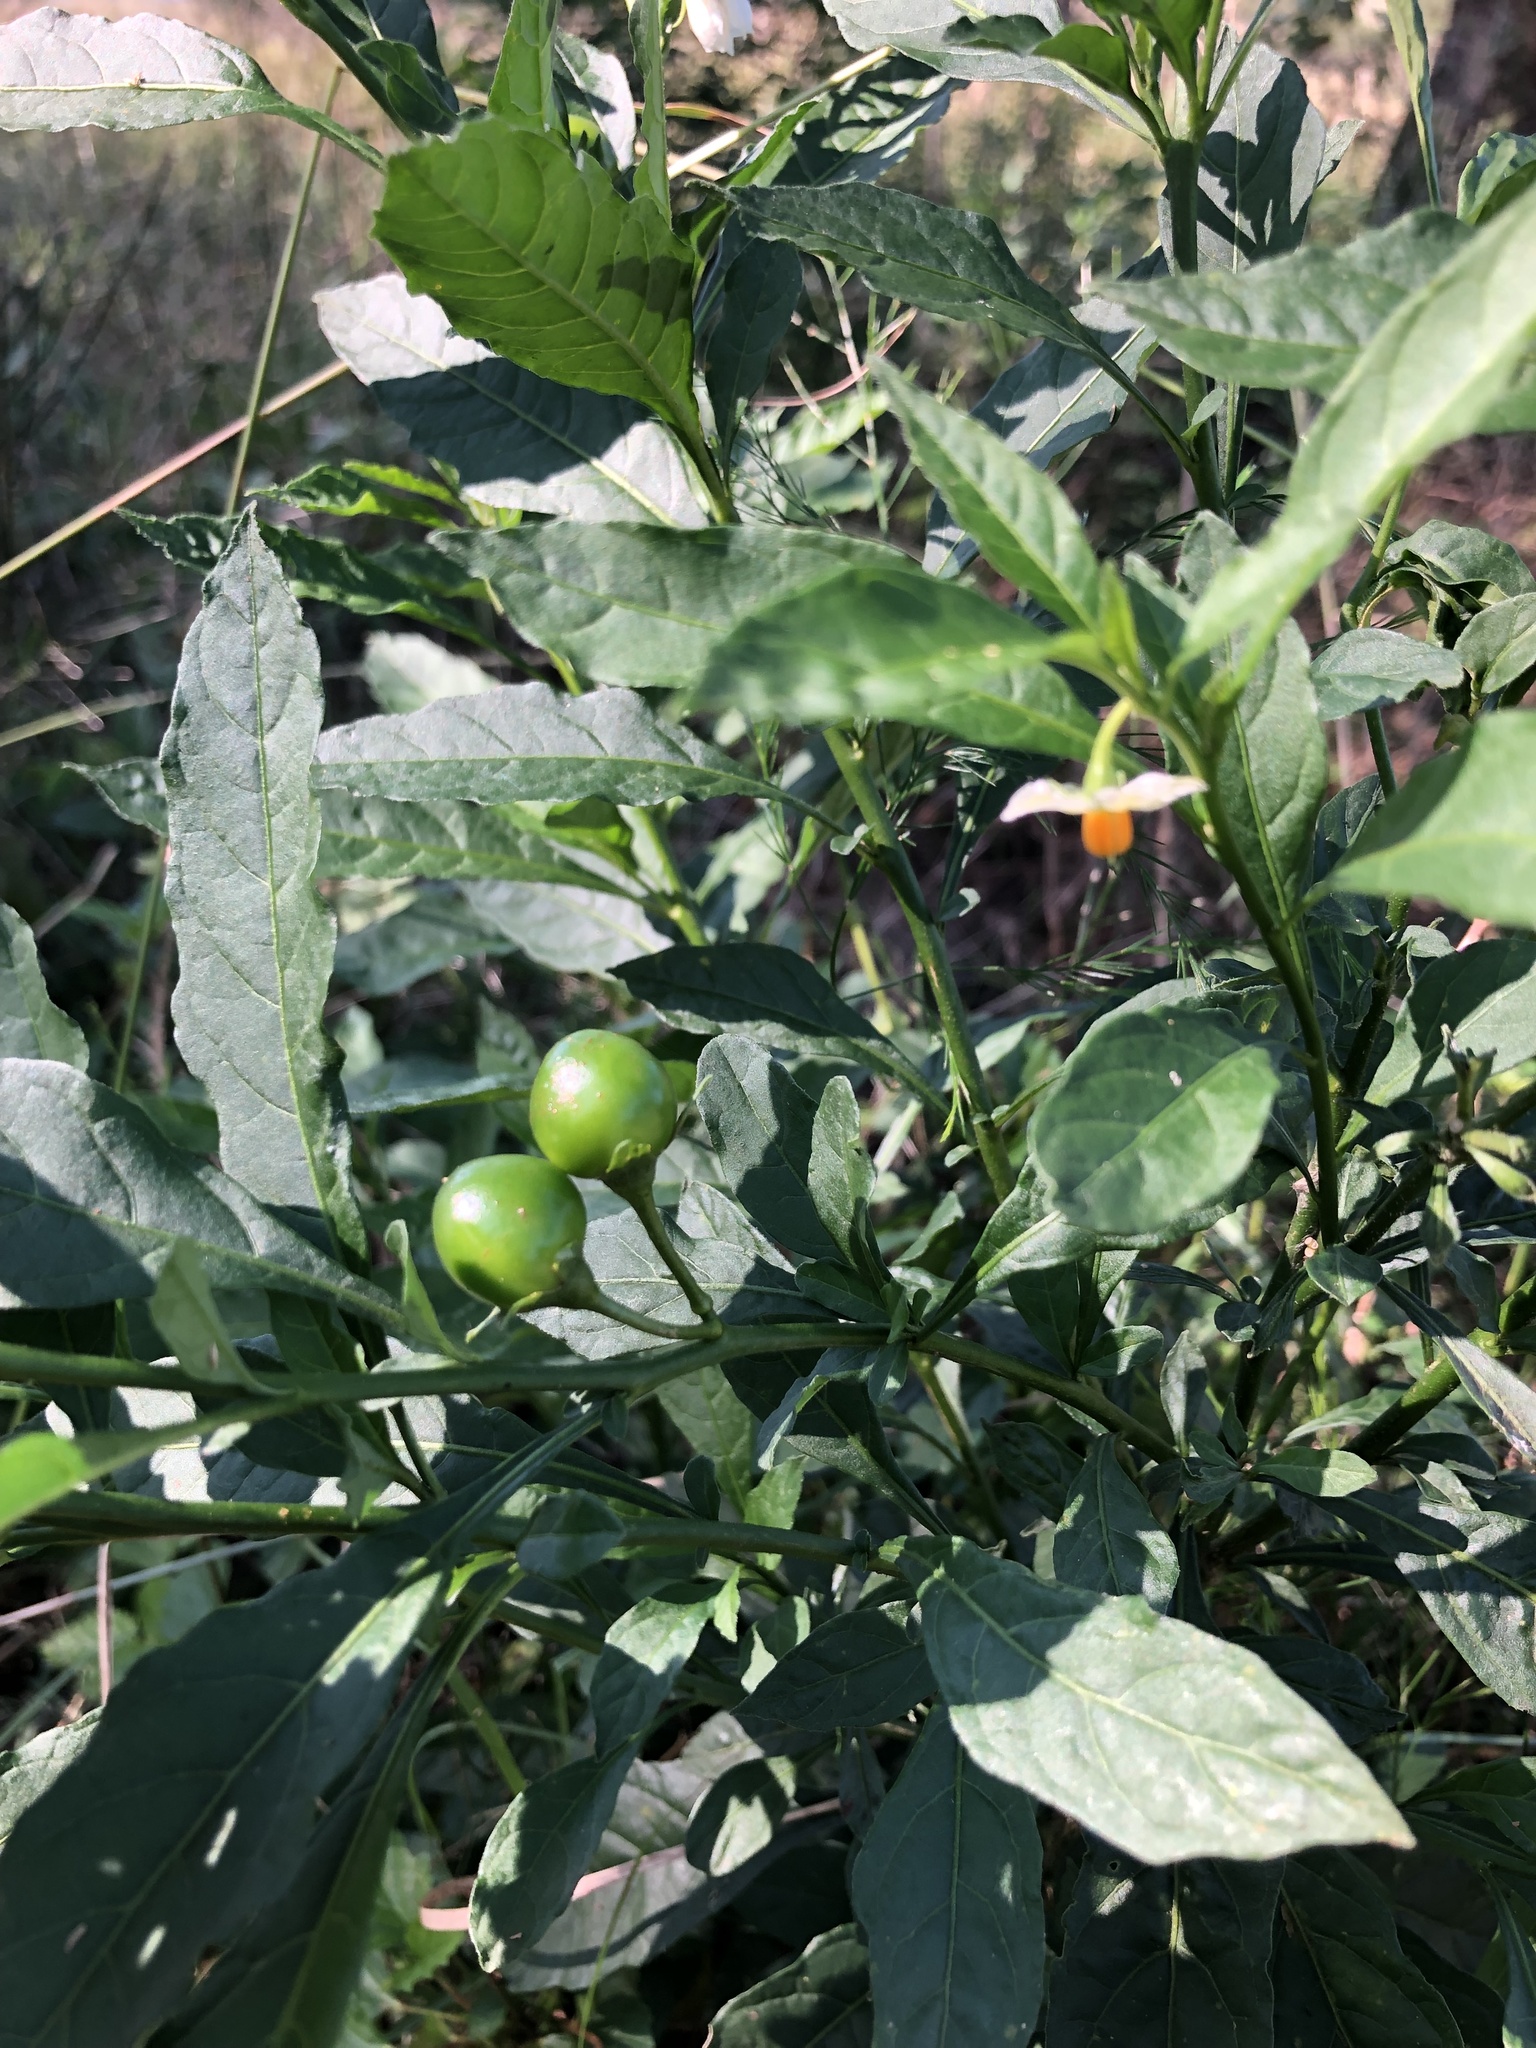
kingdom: Plantae
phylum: Tracheophyta
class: Magnoliopsida
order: Solanales
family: Solanaceae
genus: Solanum
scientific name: Solanum pseudocapsicum
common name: Jerusalem cherry
